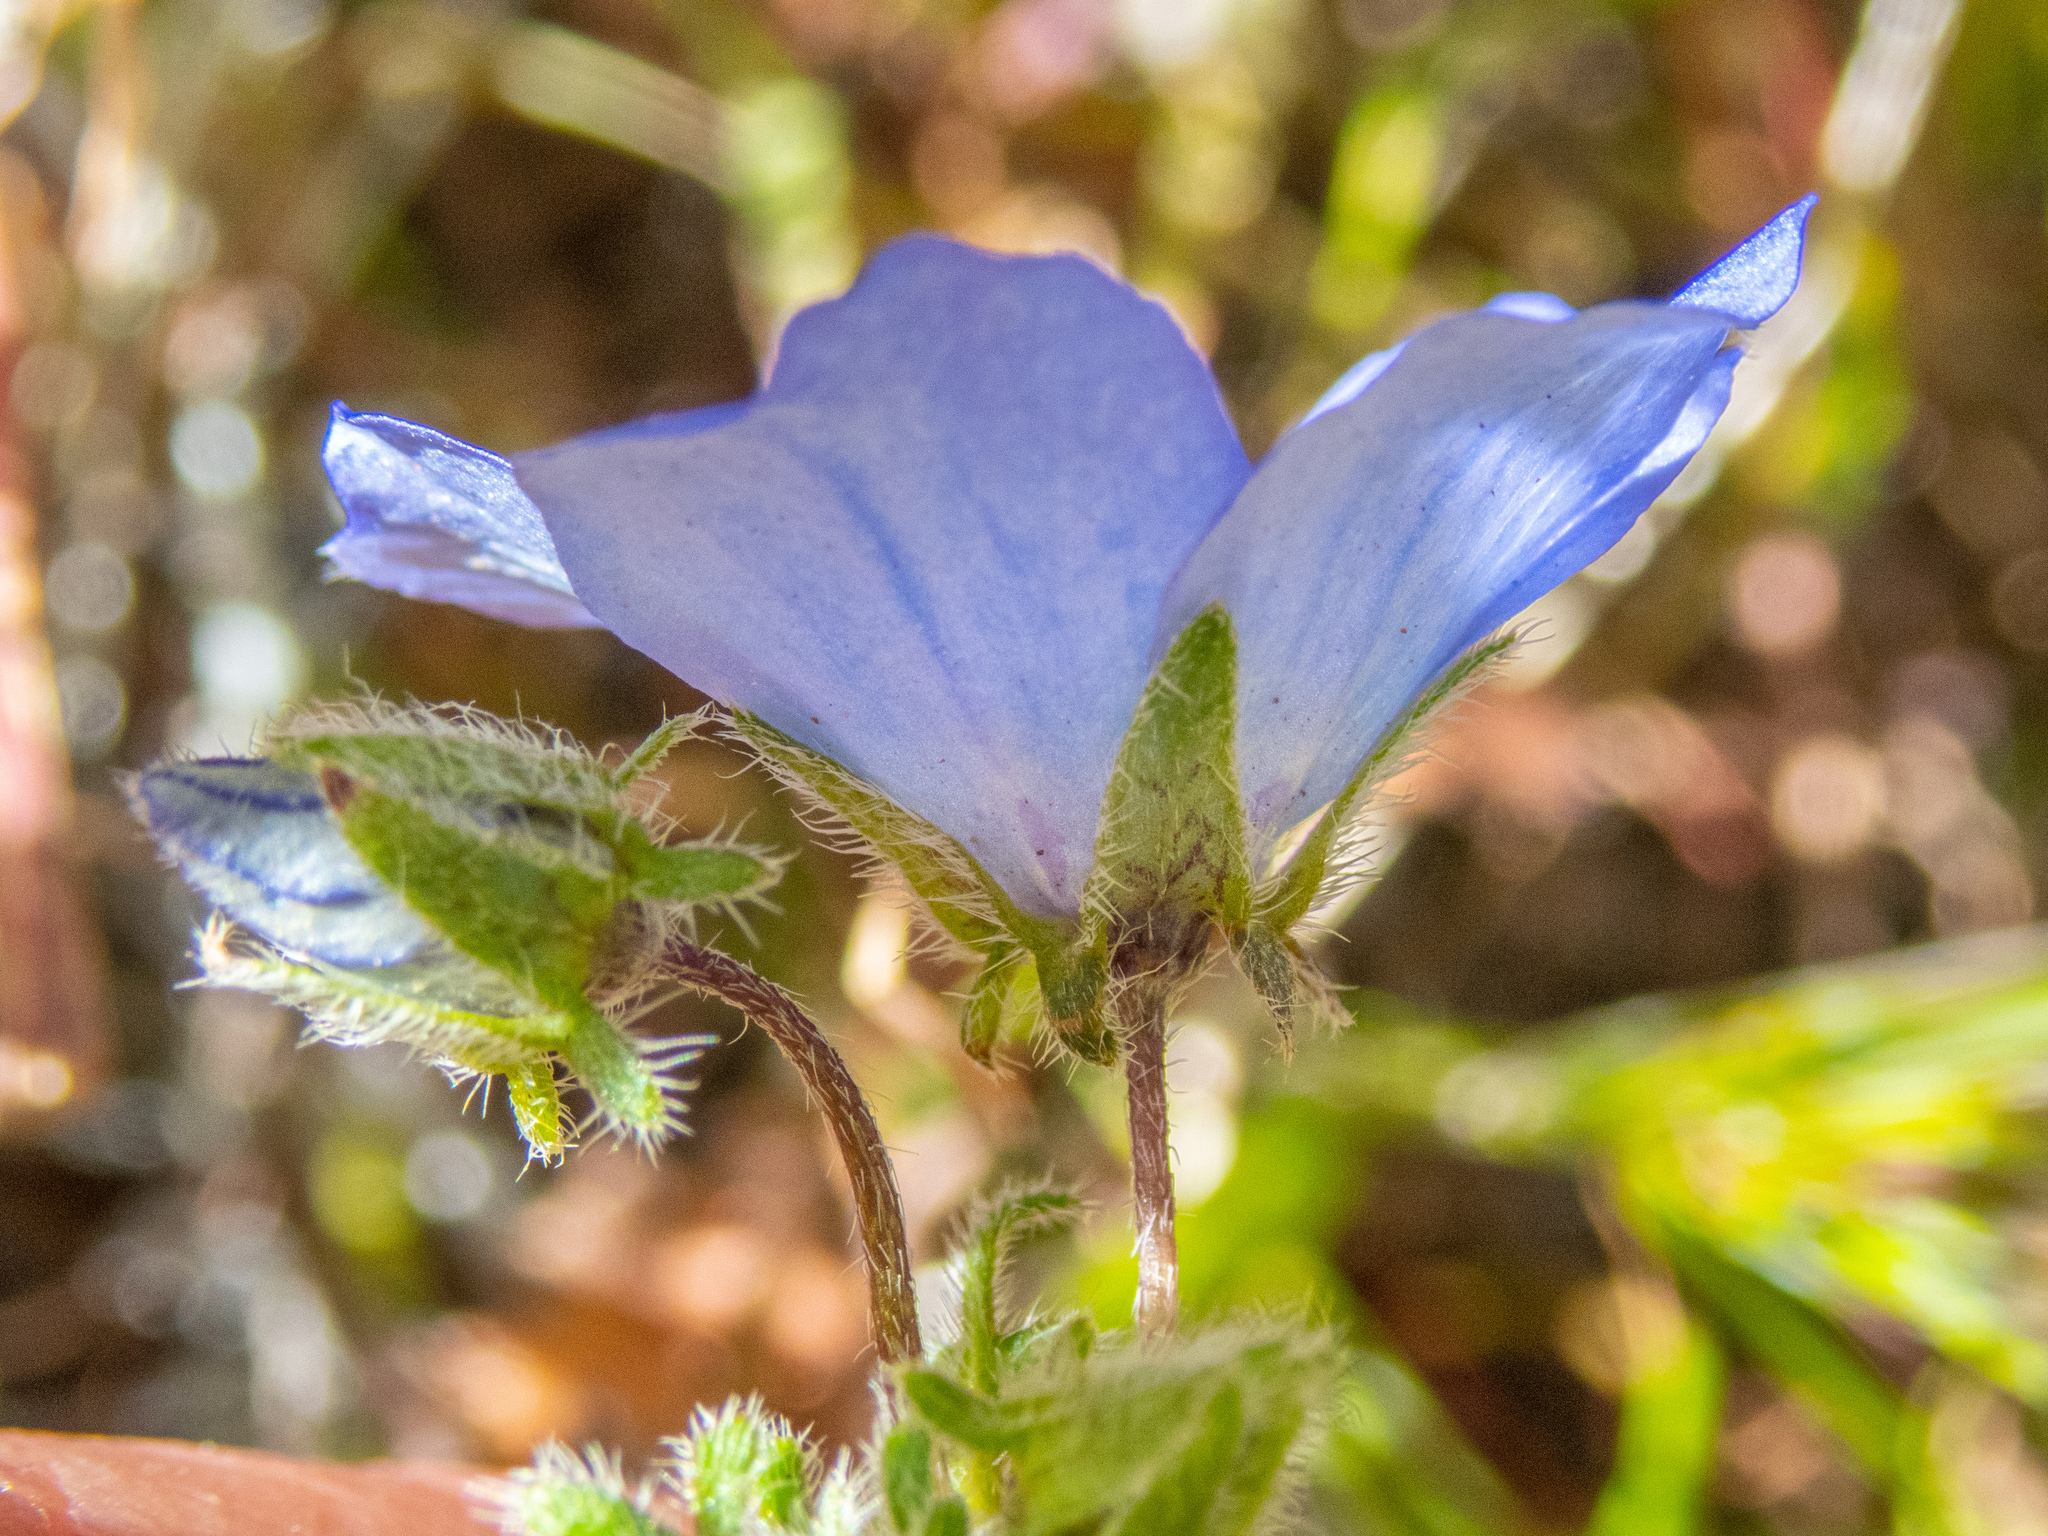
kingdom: Plantae
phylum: Tracheophyta
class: Magnoliopsida
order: Boraginales
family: Hydrophyllaceae
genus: Nemophila
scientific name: Nemophila menziesii
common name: Baby's-blue-eyes
